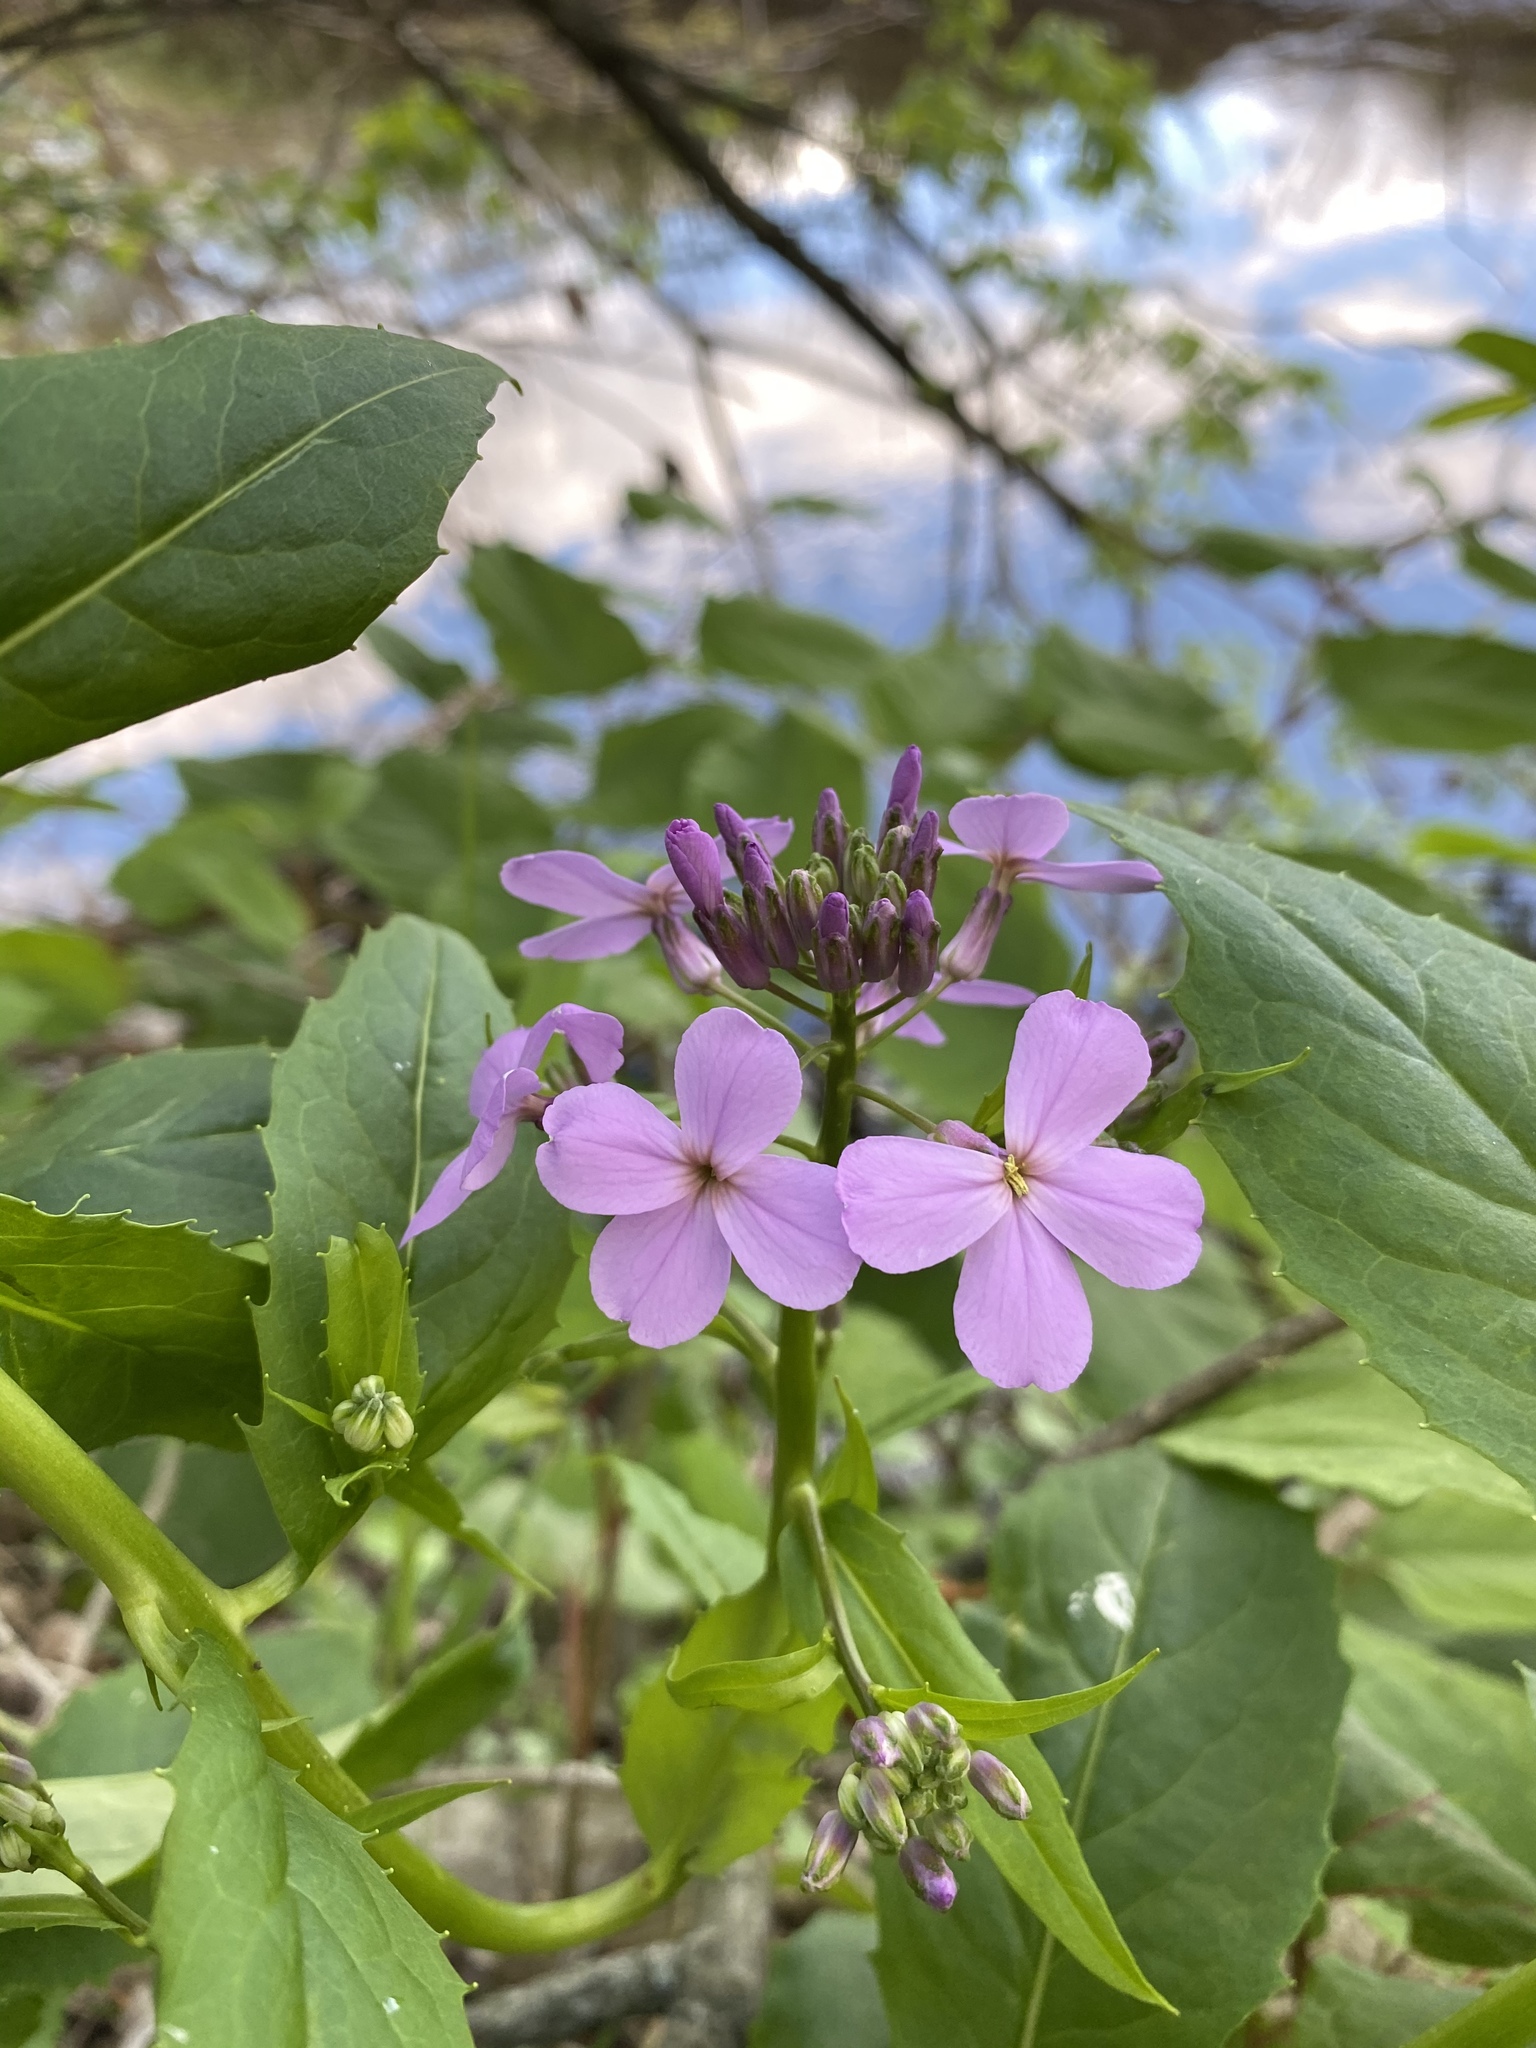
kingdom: Plantae
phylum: Tracheophyta
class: Magnoliopsida
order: Brassicales
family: Brassicaceae
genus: Hesperis
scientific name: Hesperis matronalis
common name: Dame's-violet
